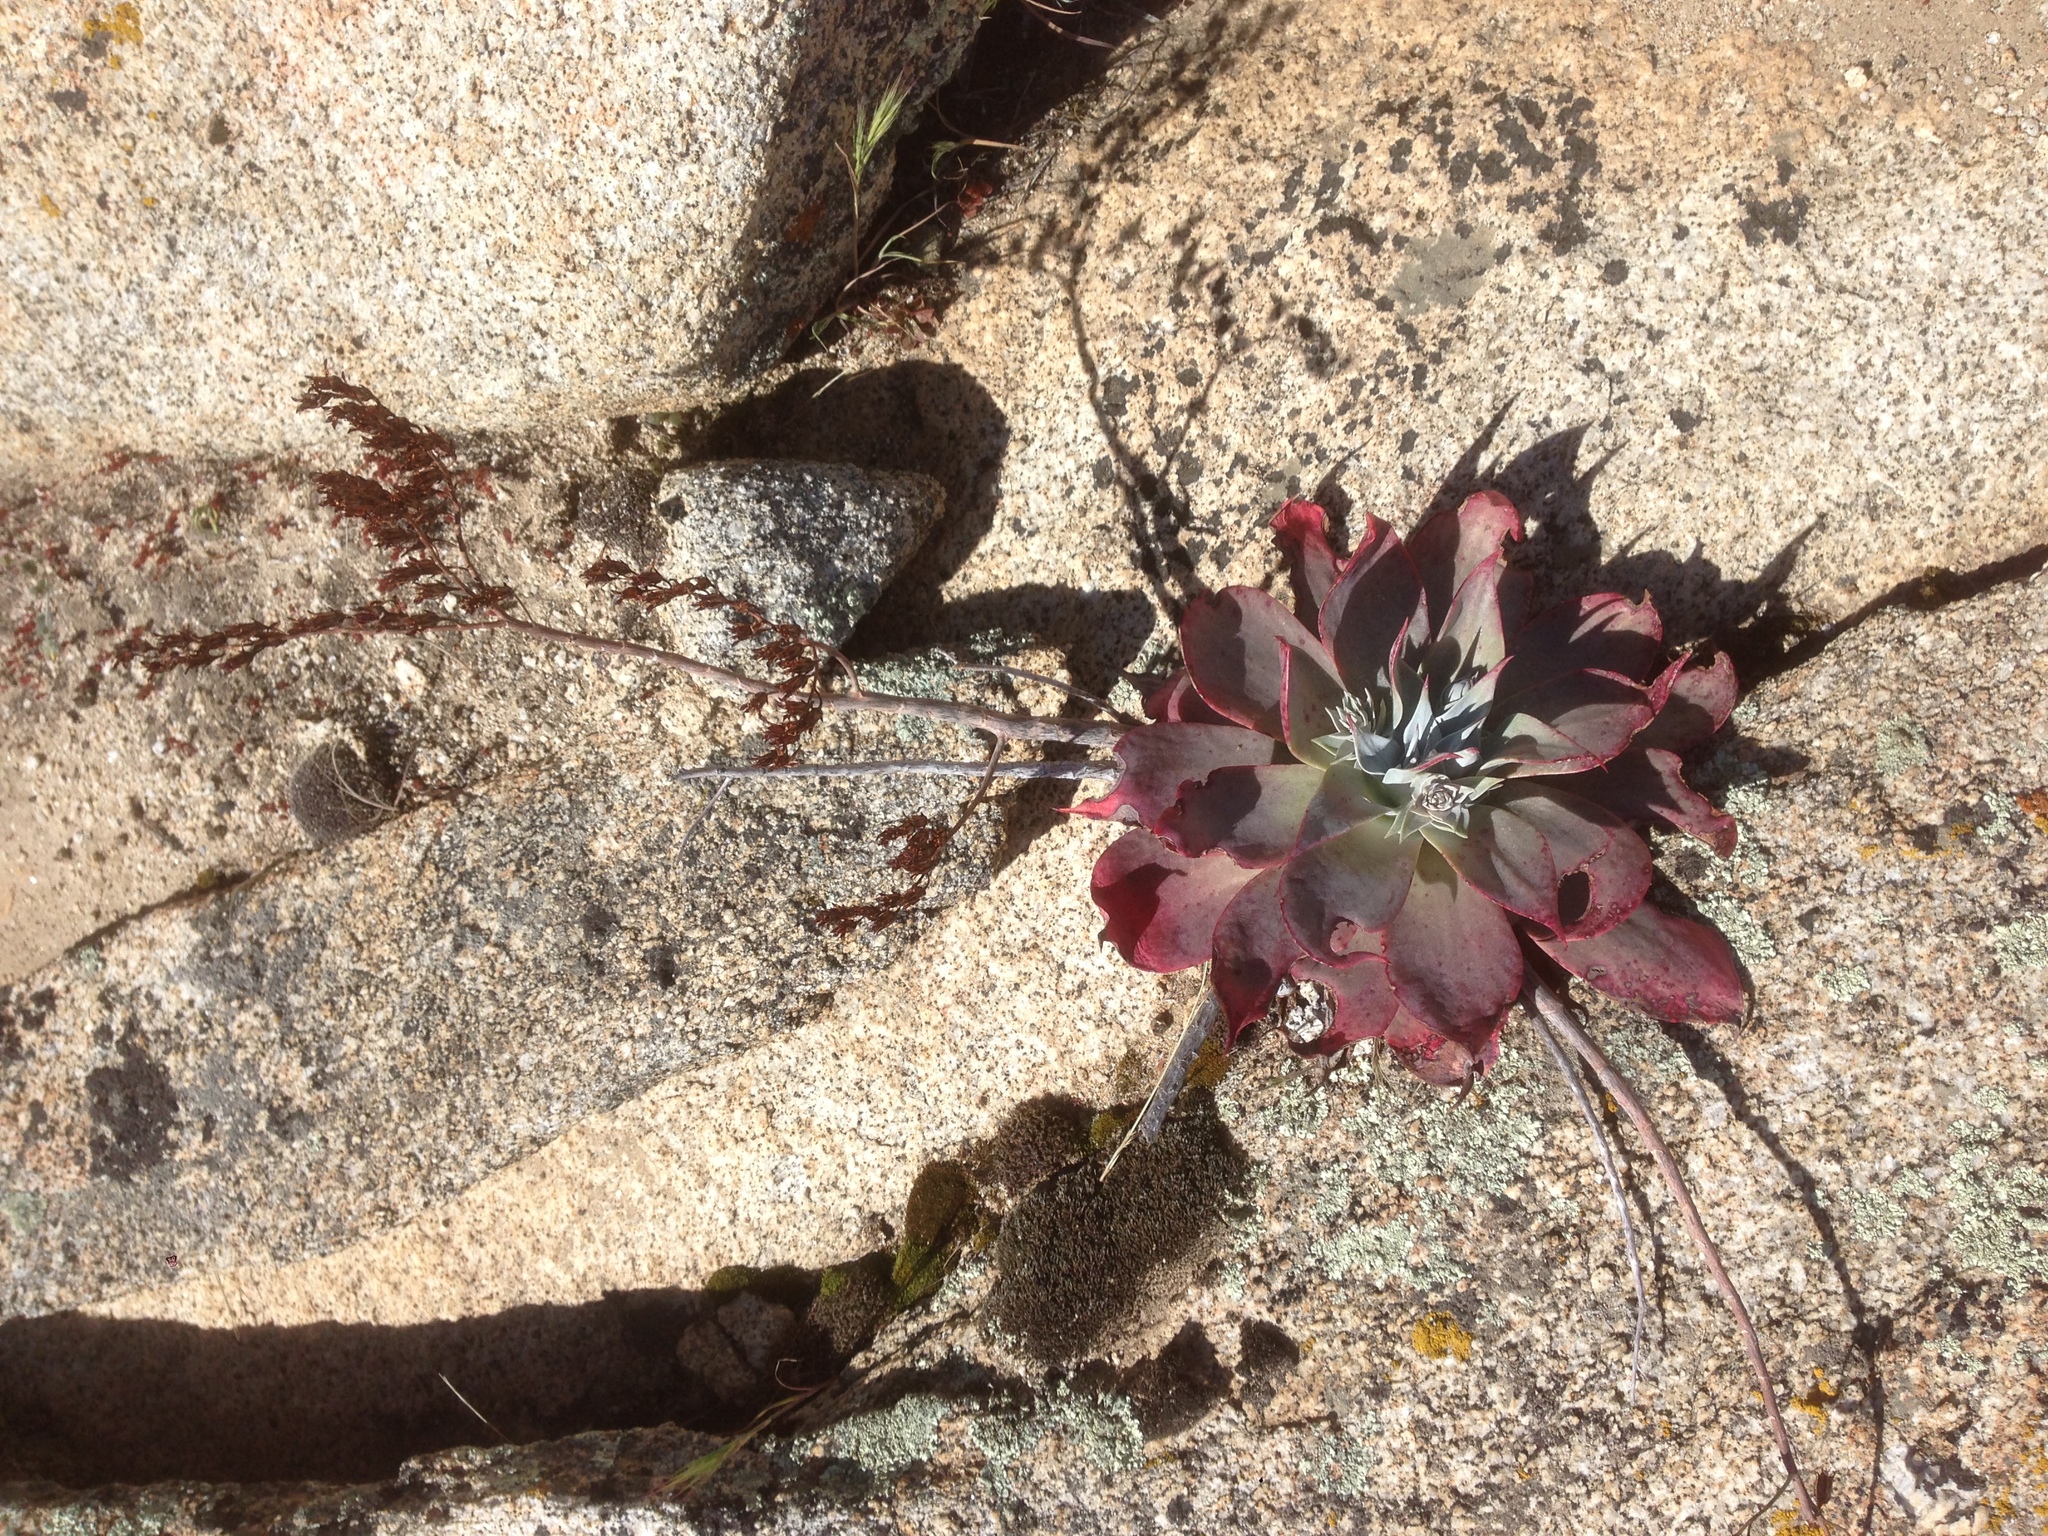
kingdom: Plantae
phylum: Tracheophyta
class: Magnoliopsida
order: Saxifragales
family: Crassulaceae
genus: Dudleya
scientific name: Dudleya arizonica
